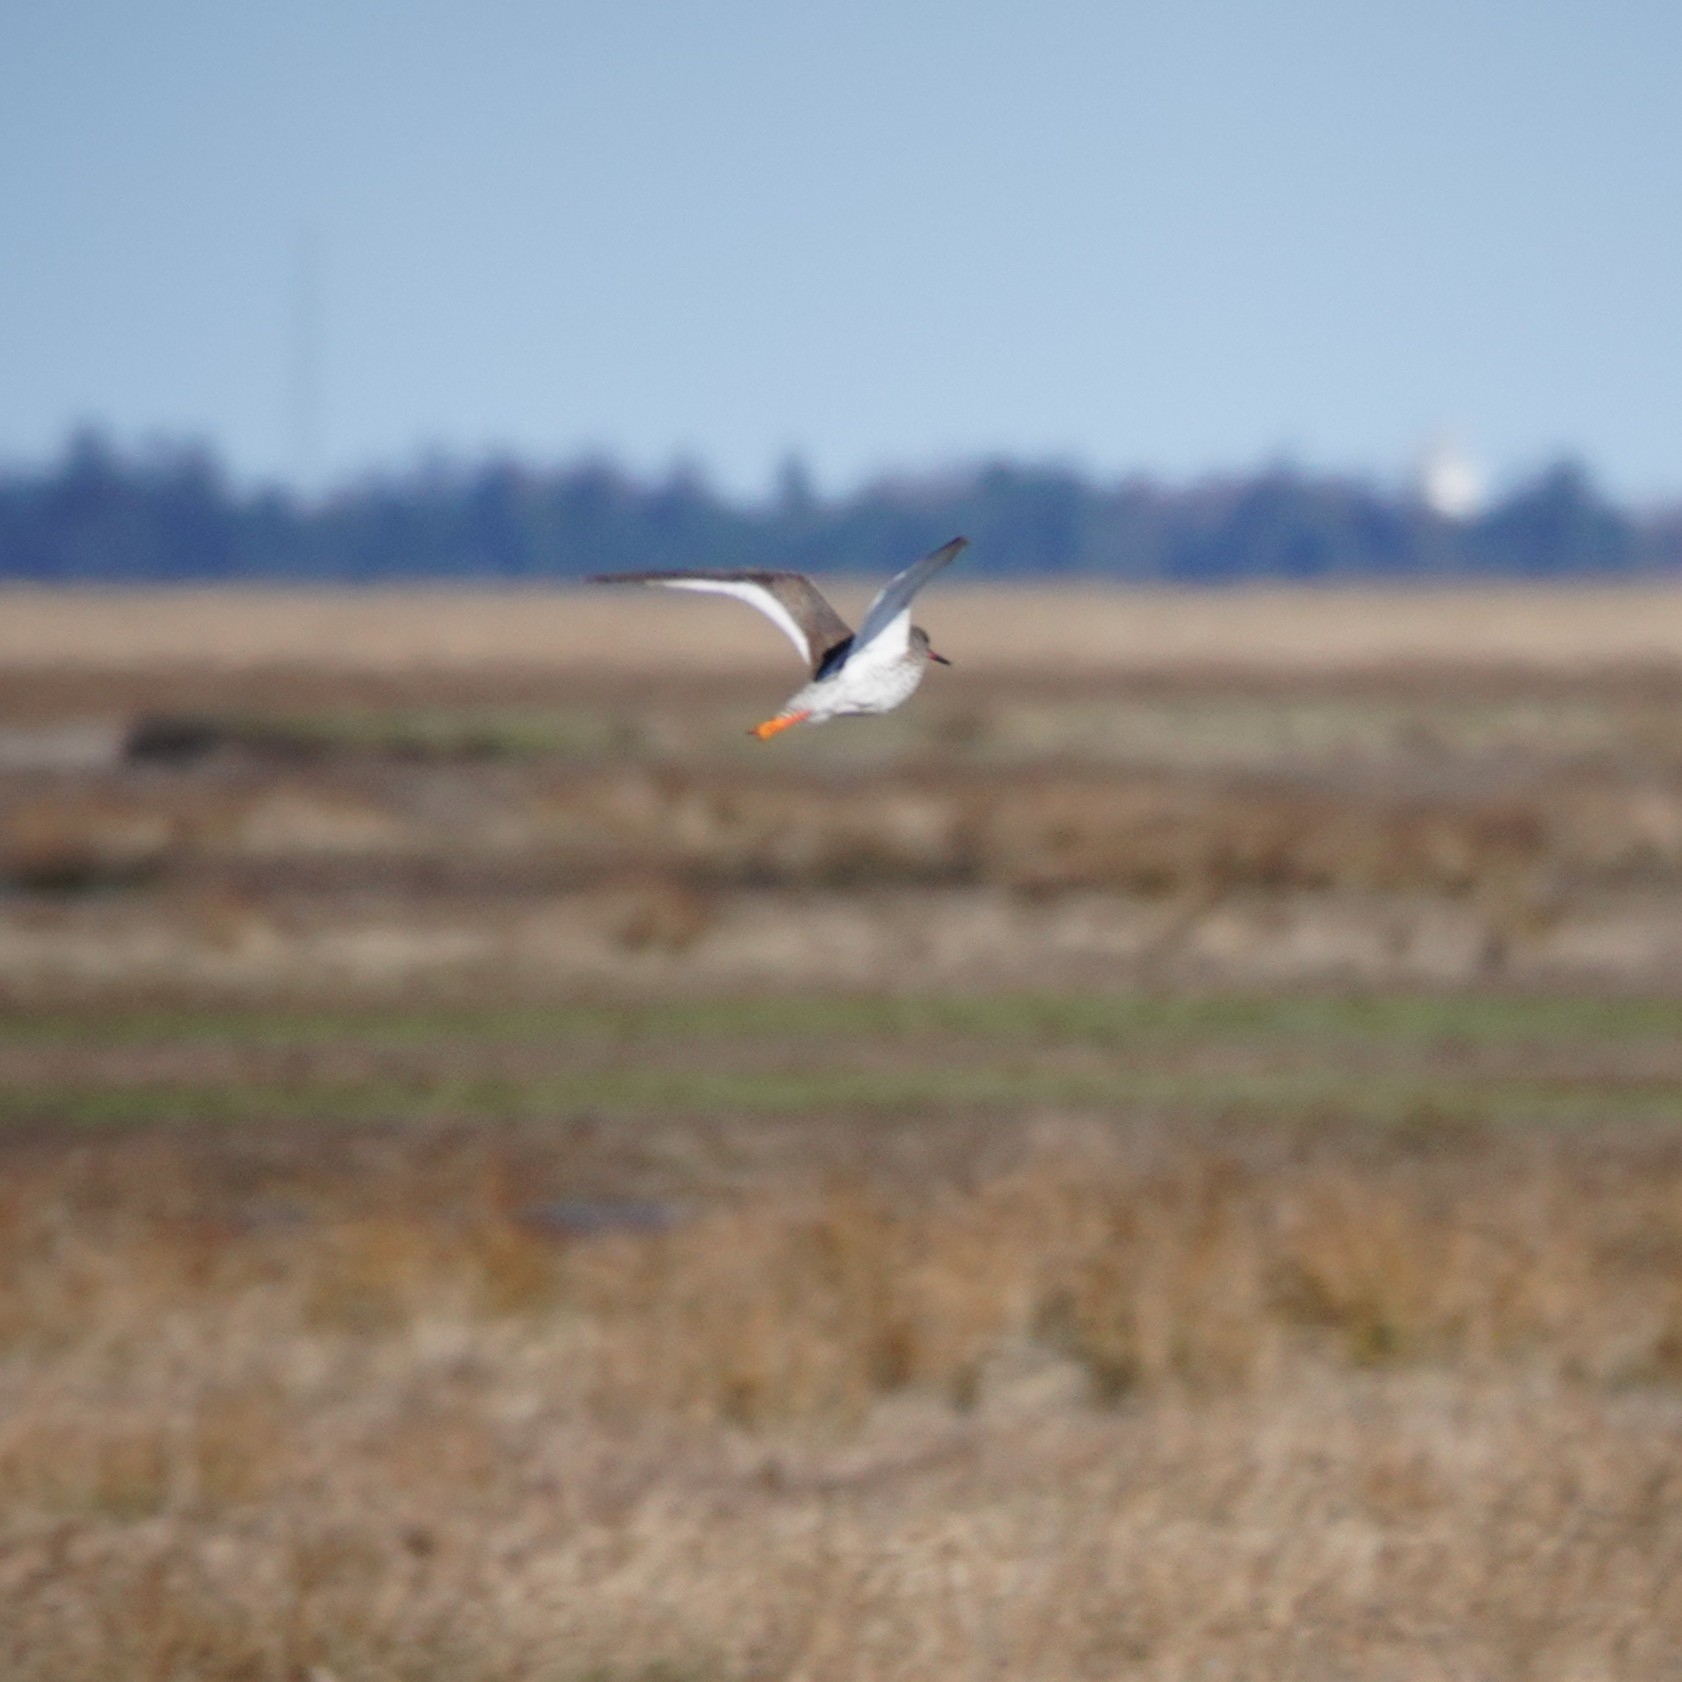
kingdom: Animalia
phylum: Chordata
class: Aves
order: Charadriiformes
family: Scolopacidae
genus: Tringa
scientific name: Tringa totanus
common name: Common redshank
